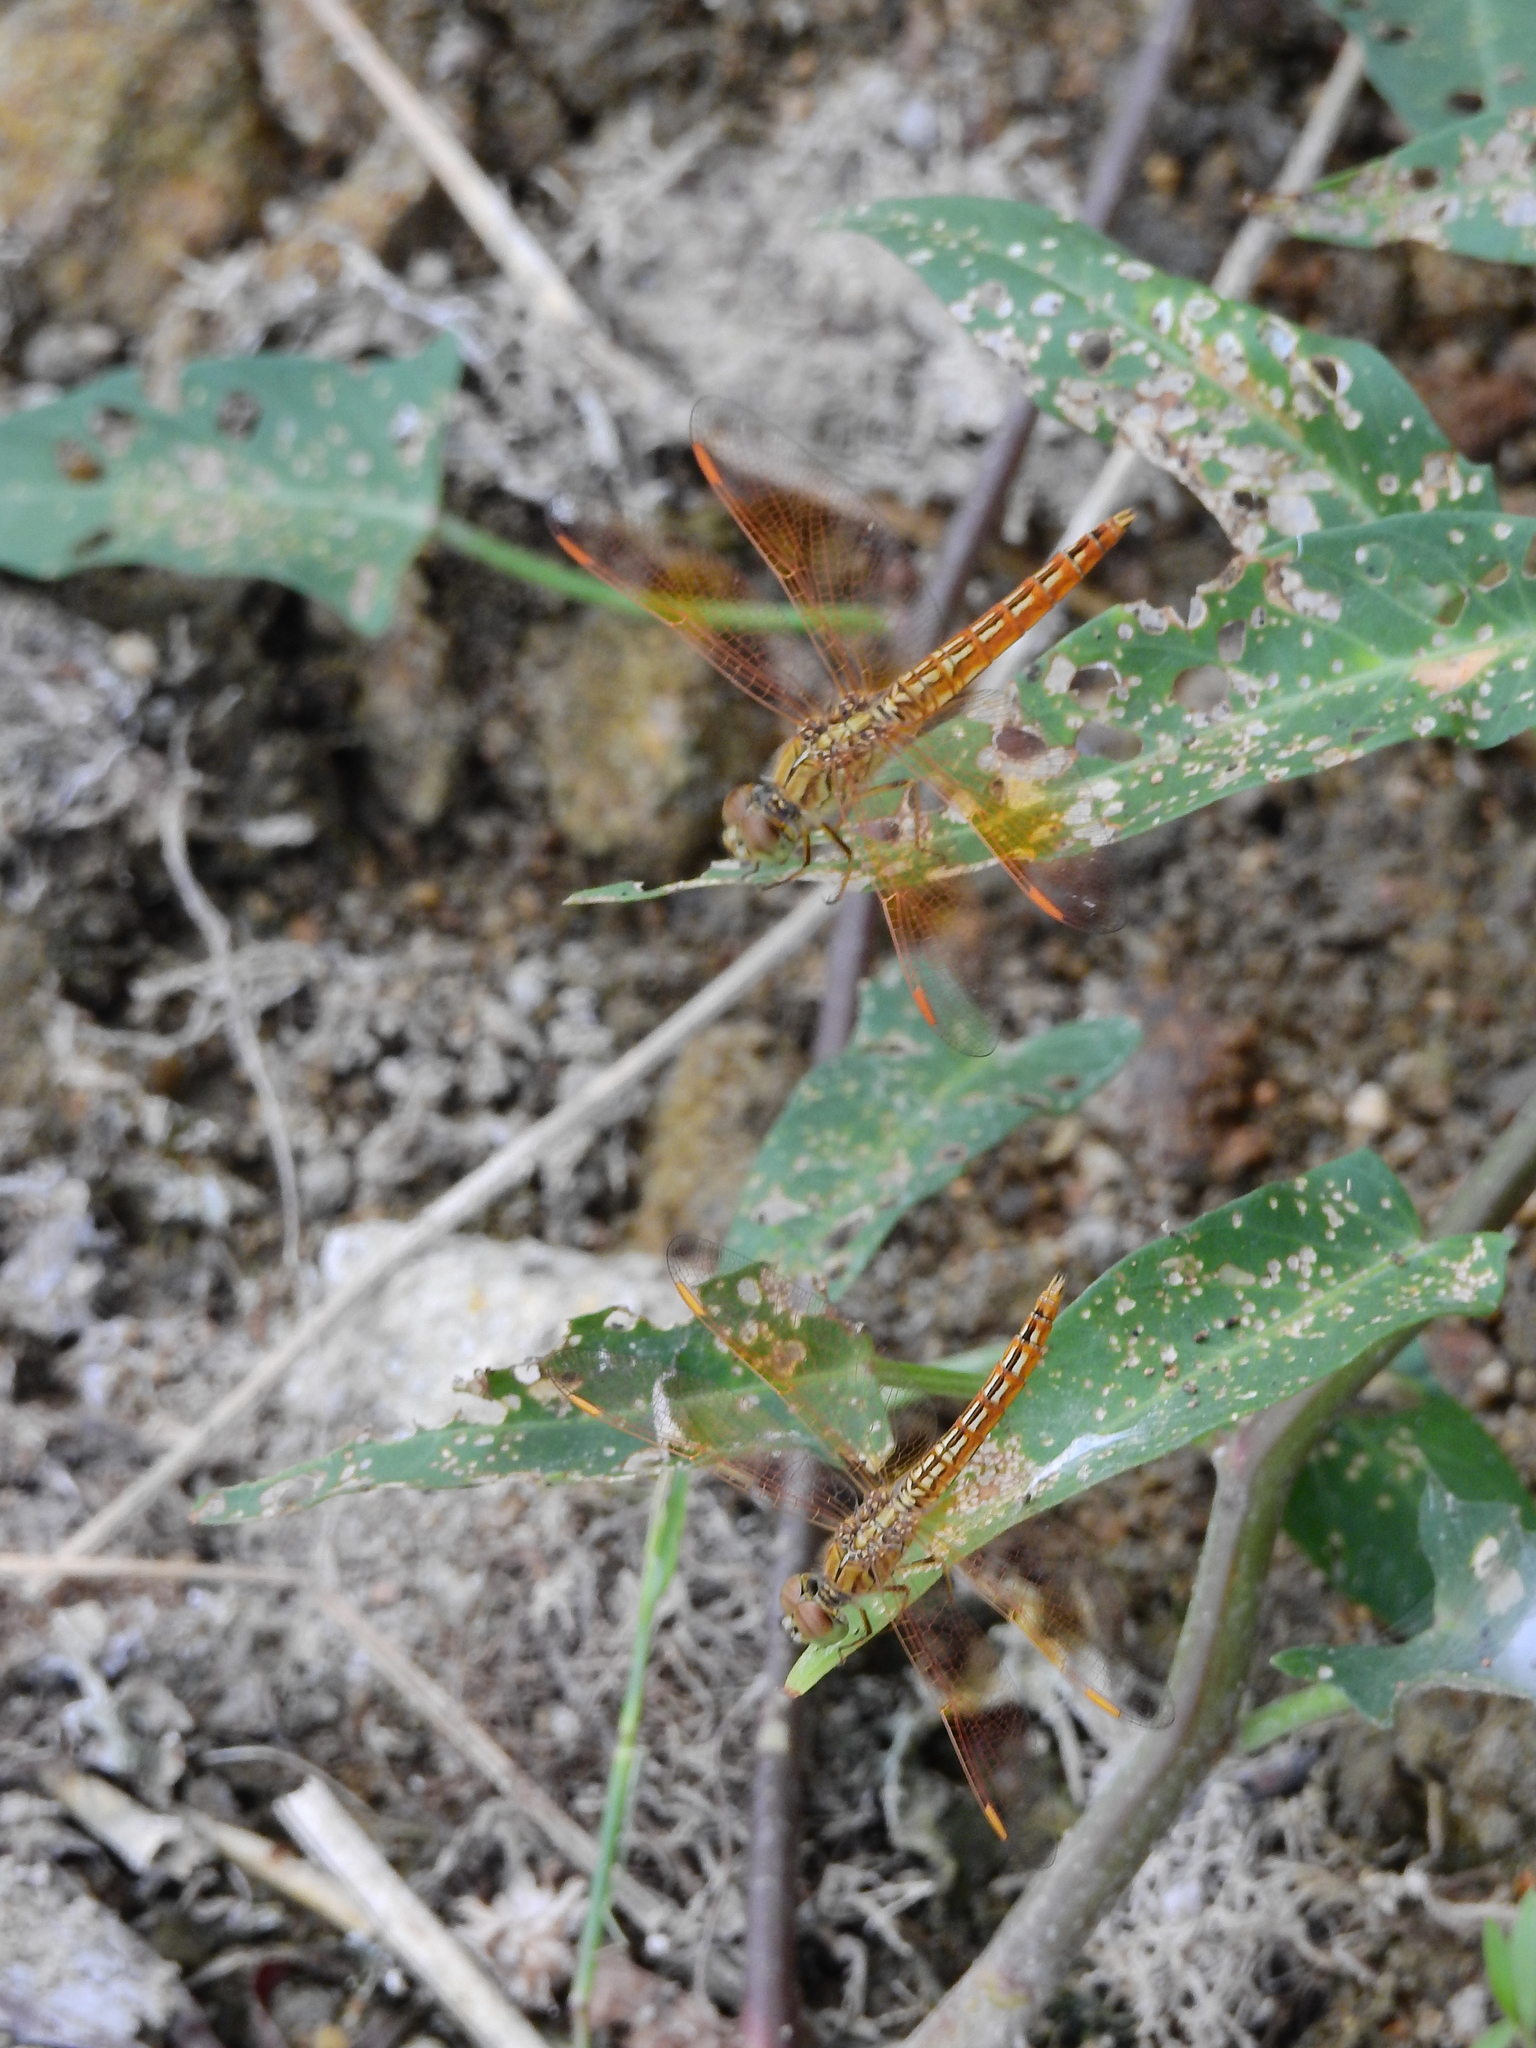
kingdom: Animalia
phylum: Arthropoda
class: Insecta
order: Odonata
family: Libellulidae
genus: Brachythemis
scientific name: Brachythemis contaminata
